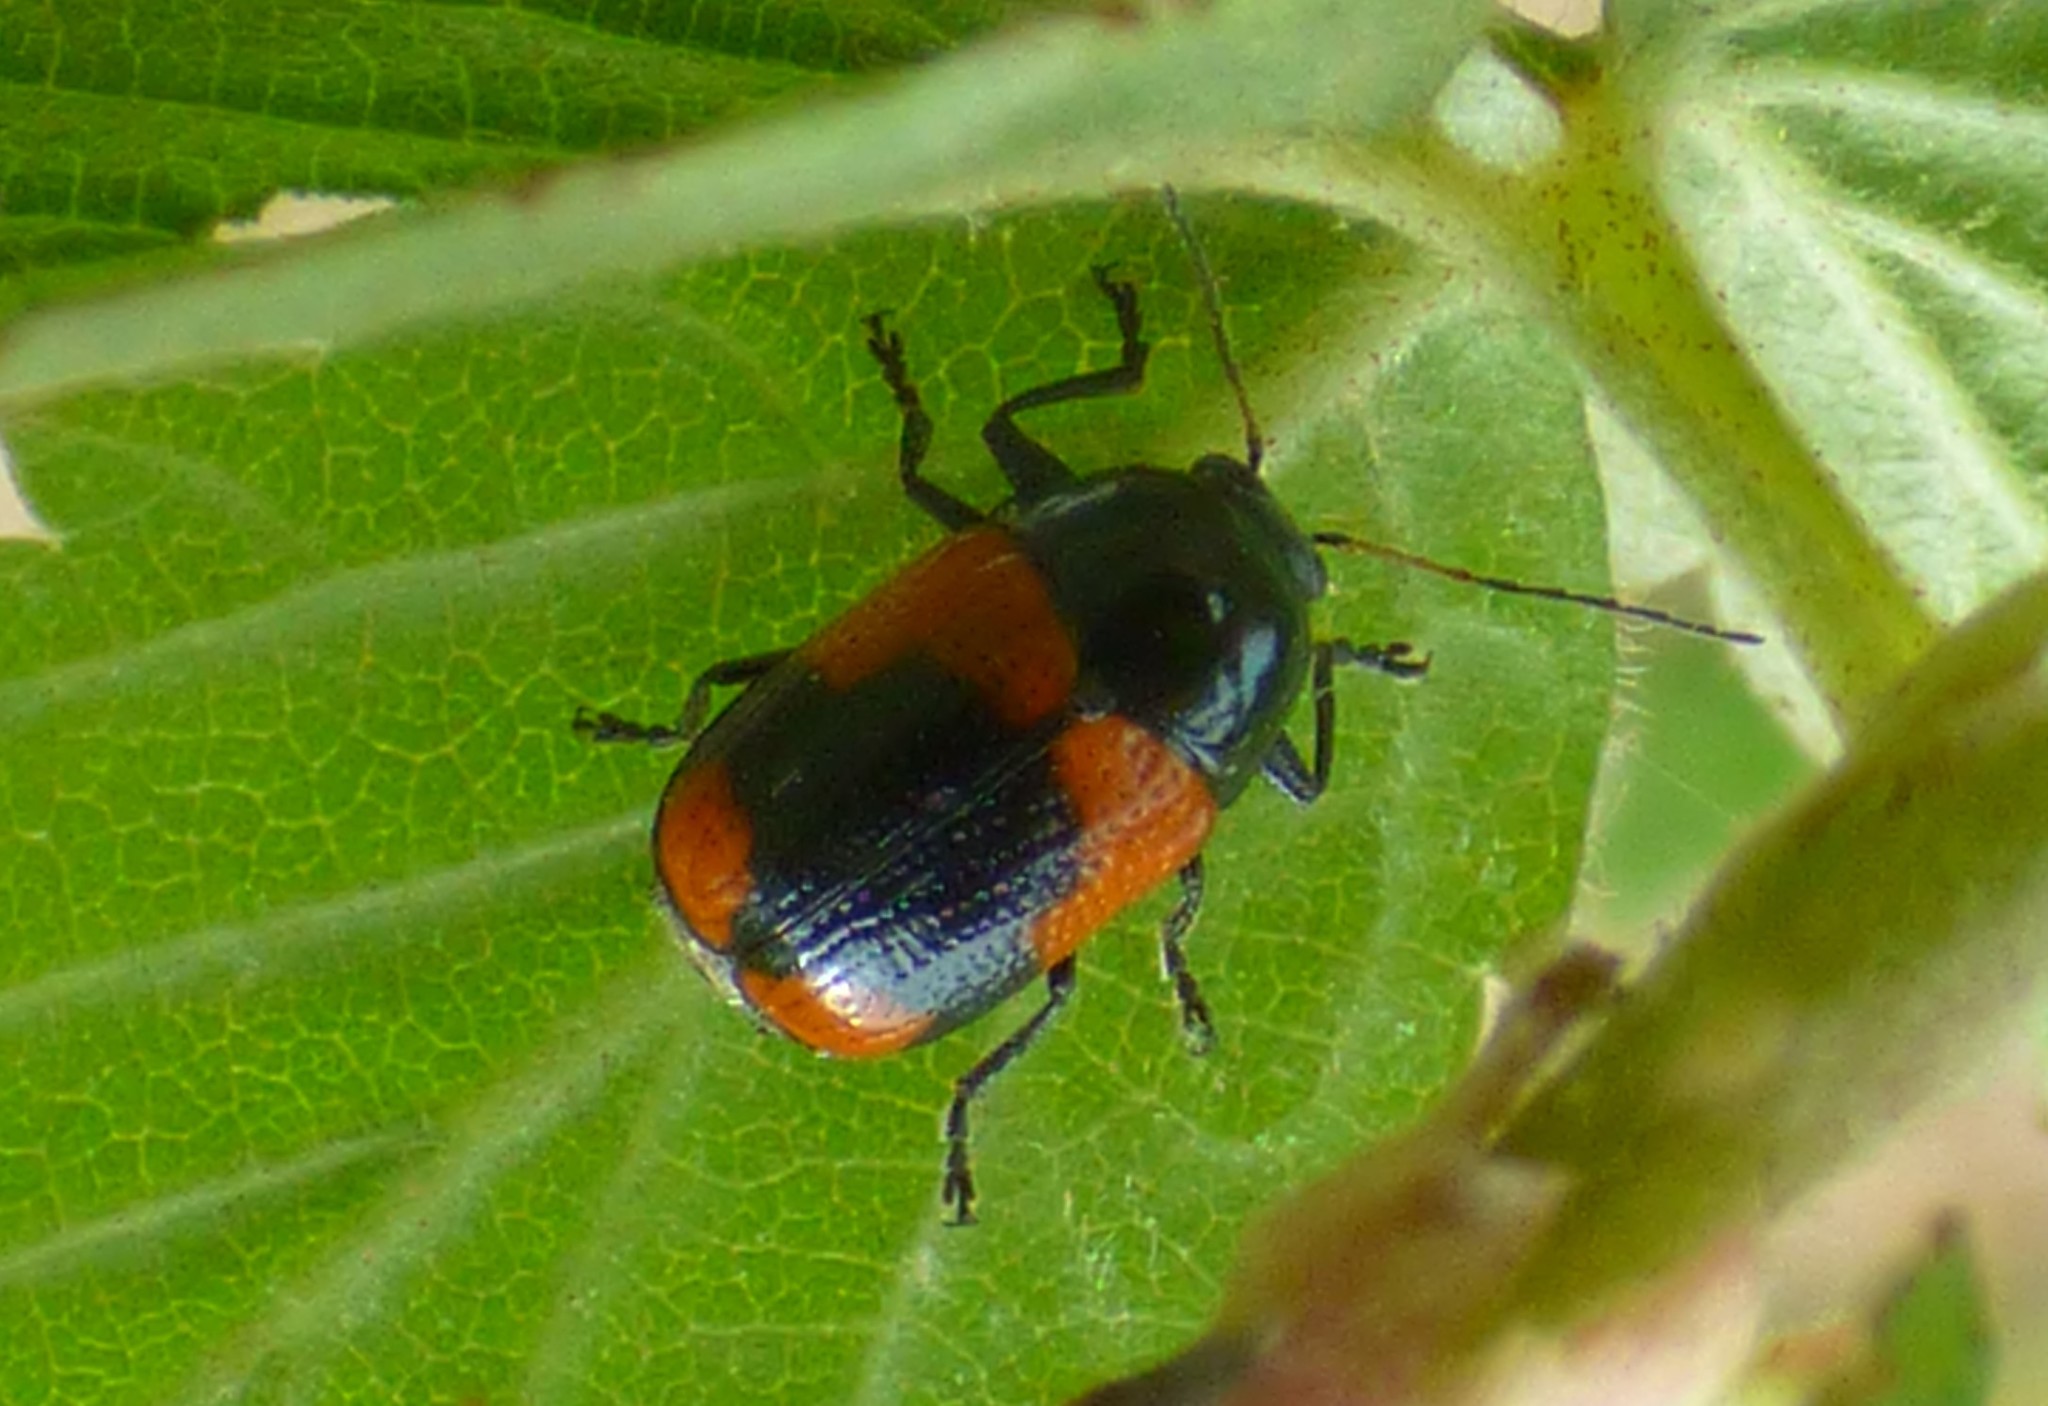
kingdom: Animalia
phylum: Arthropoda
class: Insecta
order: Coleoptera
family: Chrysomelidae
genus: Cryptocephalus
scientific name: Cryptocephalus notatus
